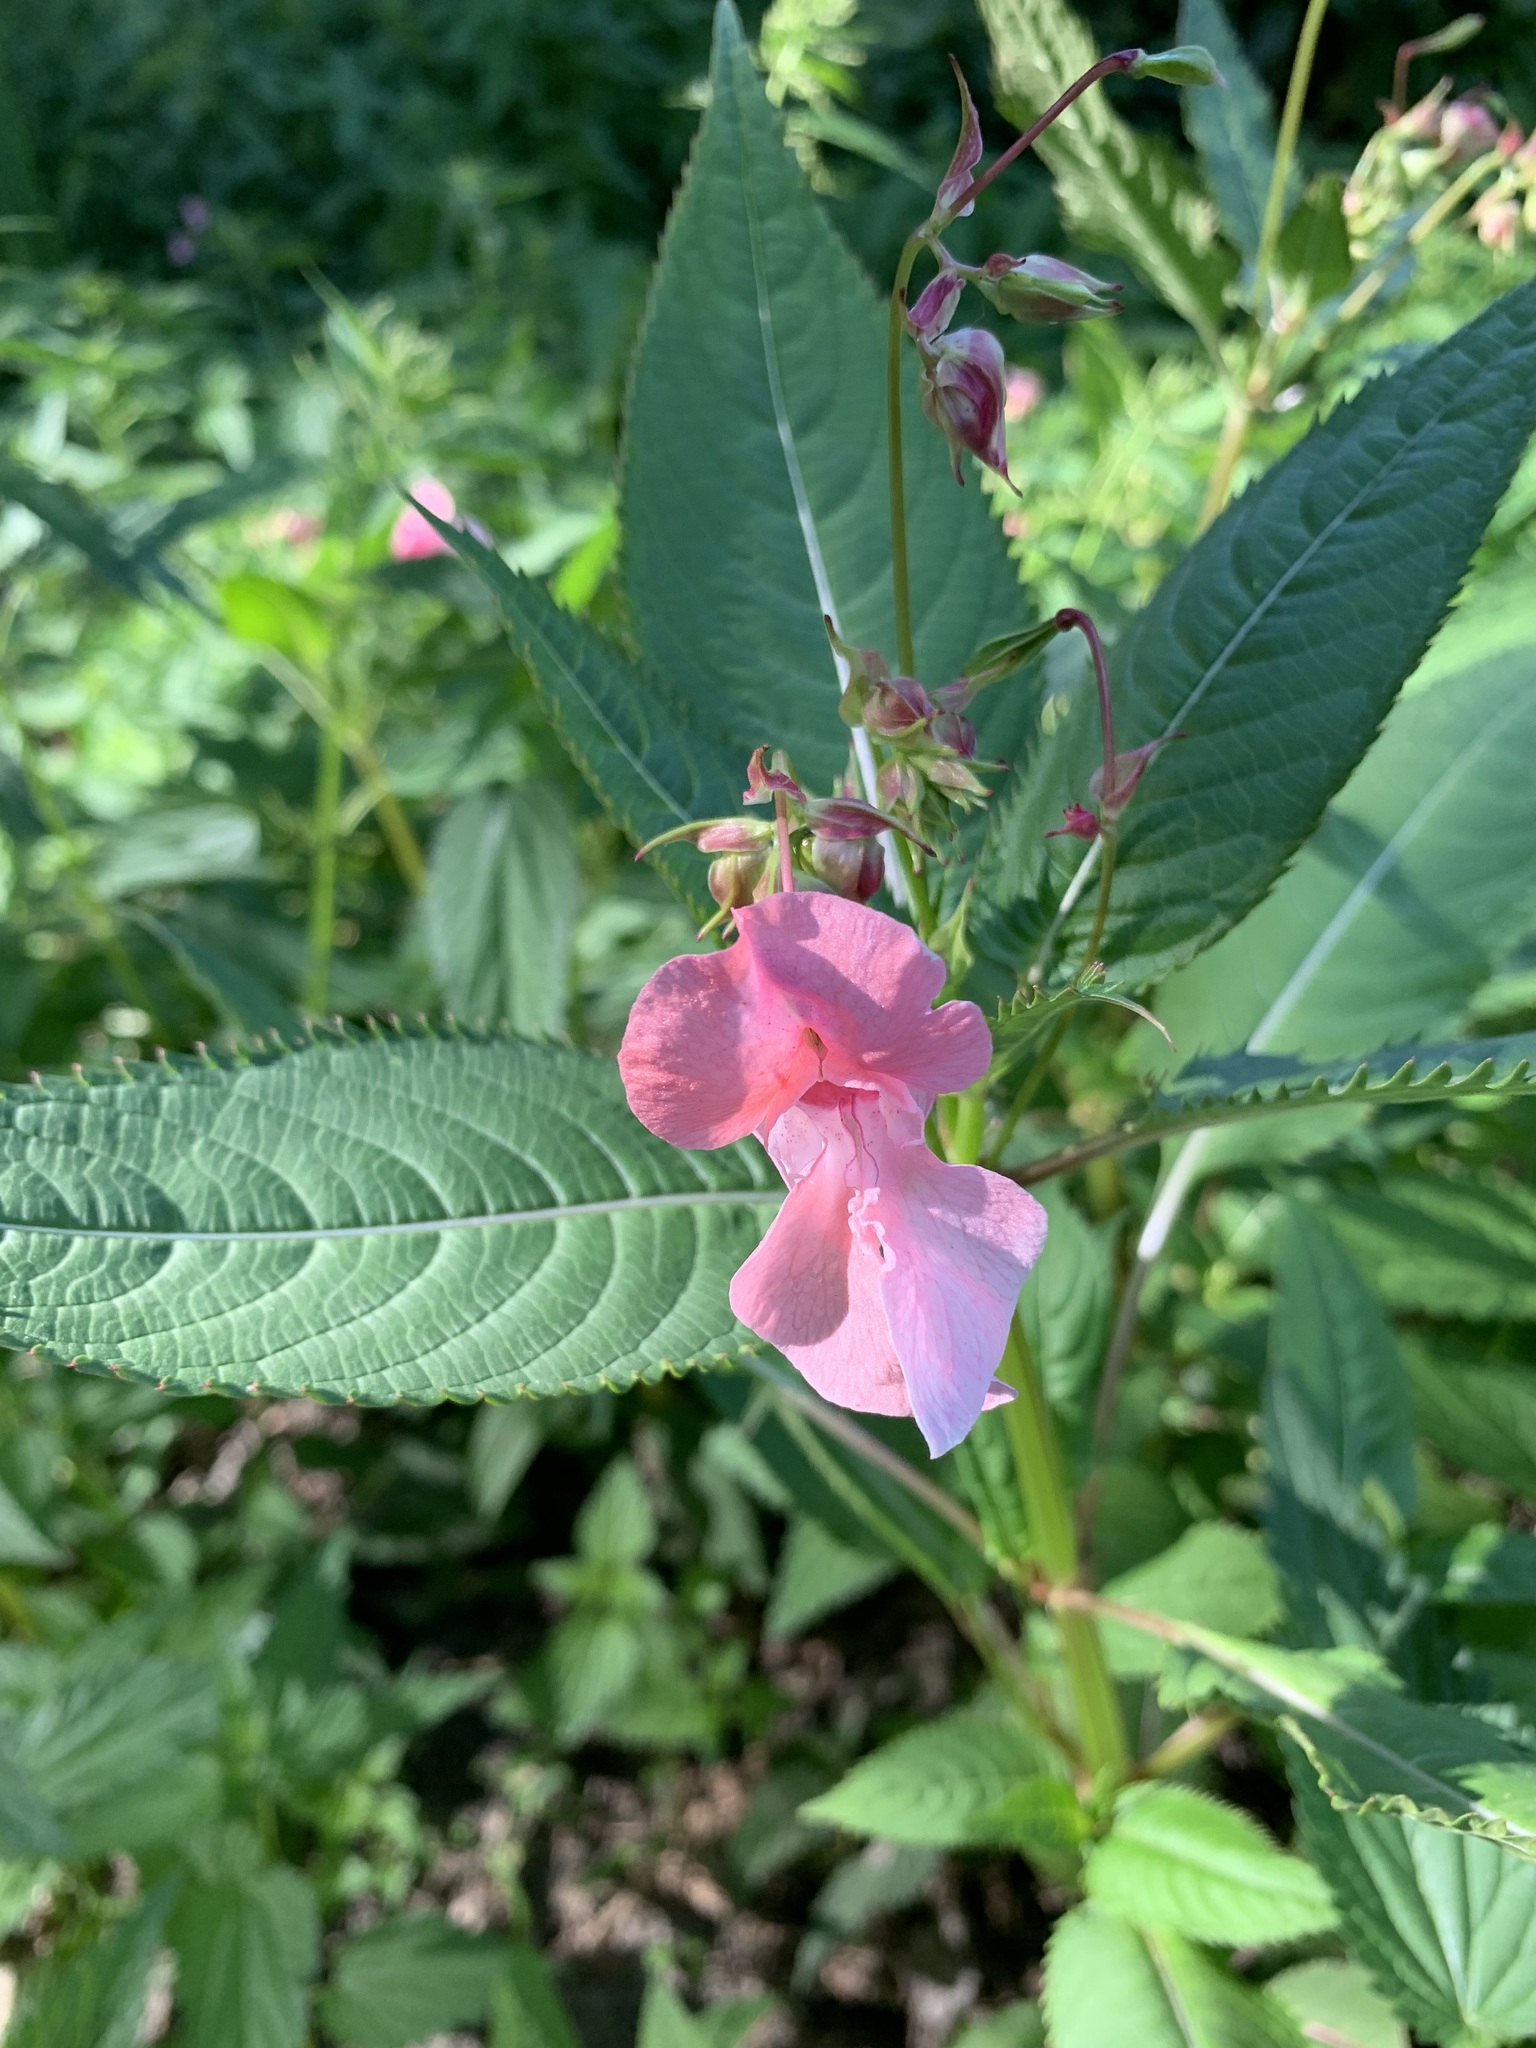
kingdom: Plantae
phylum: Tracheophyta
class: Magnoliopsida
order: Ericales
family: Balsaminaceae
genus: Impatiens
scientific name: Impatiens glandulifera
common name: Himalayan balsam
